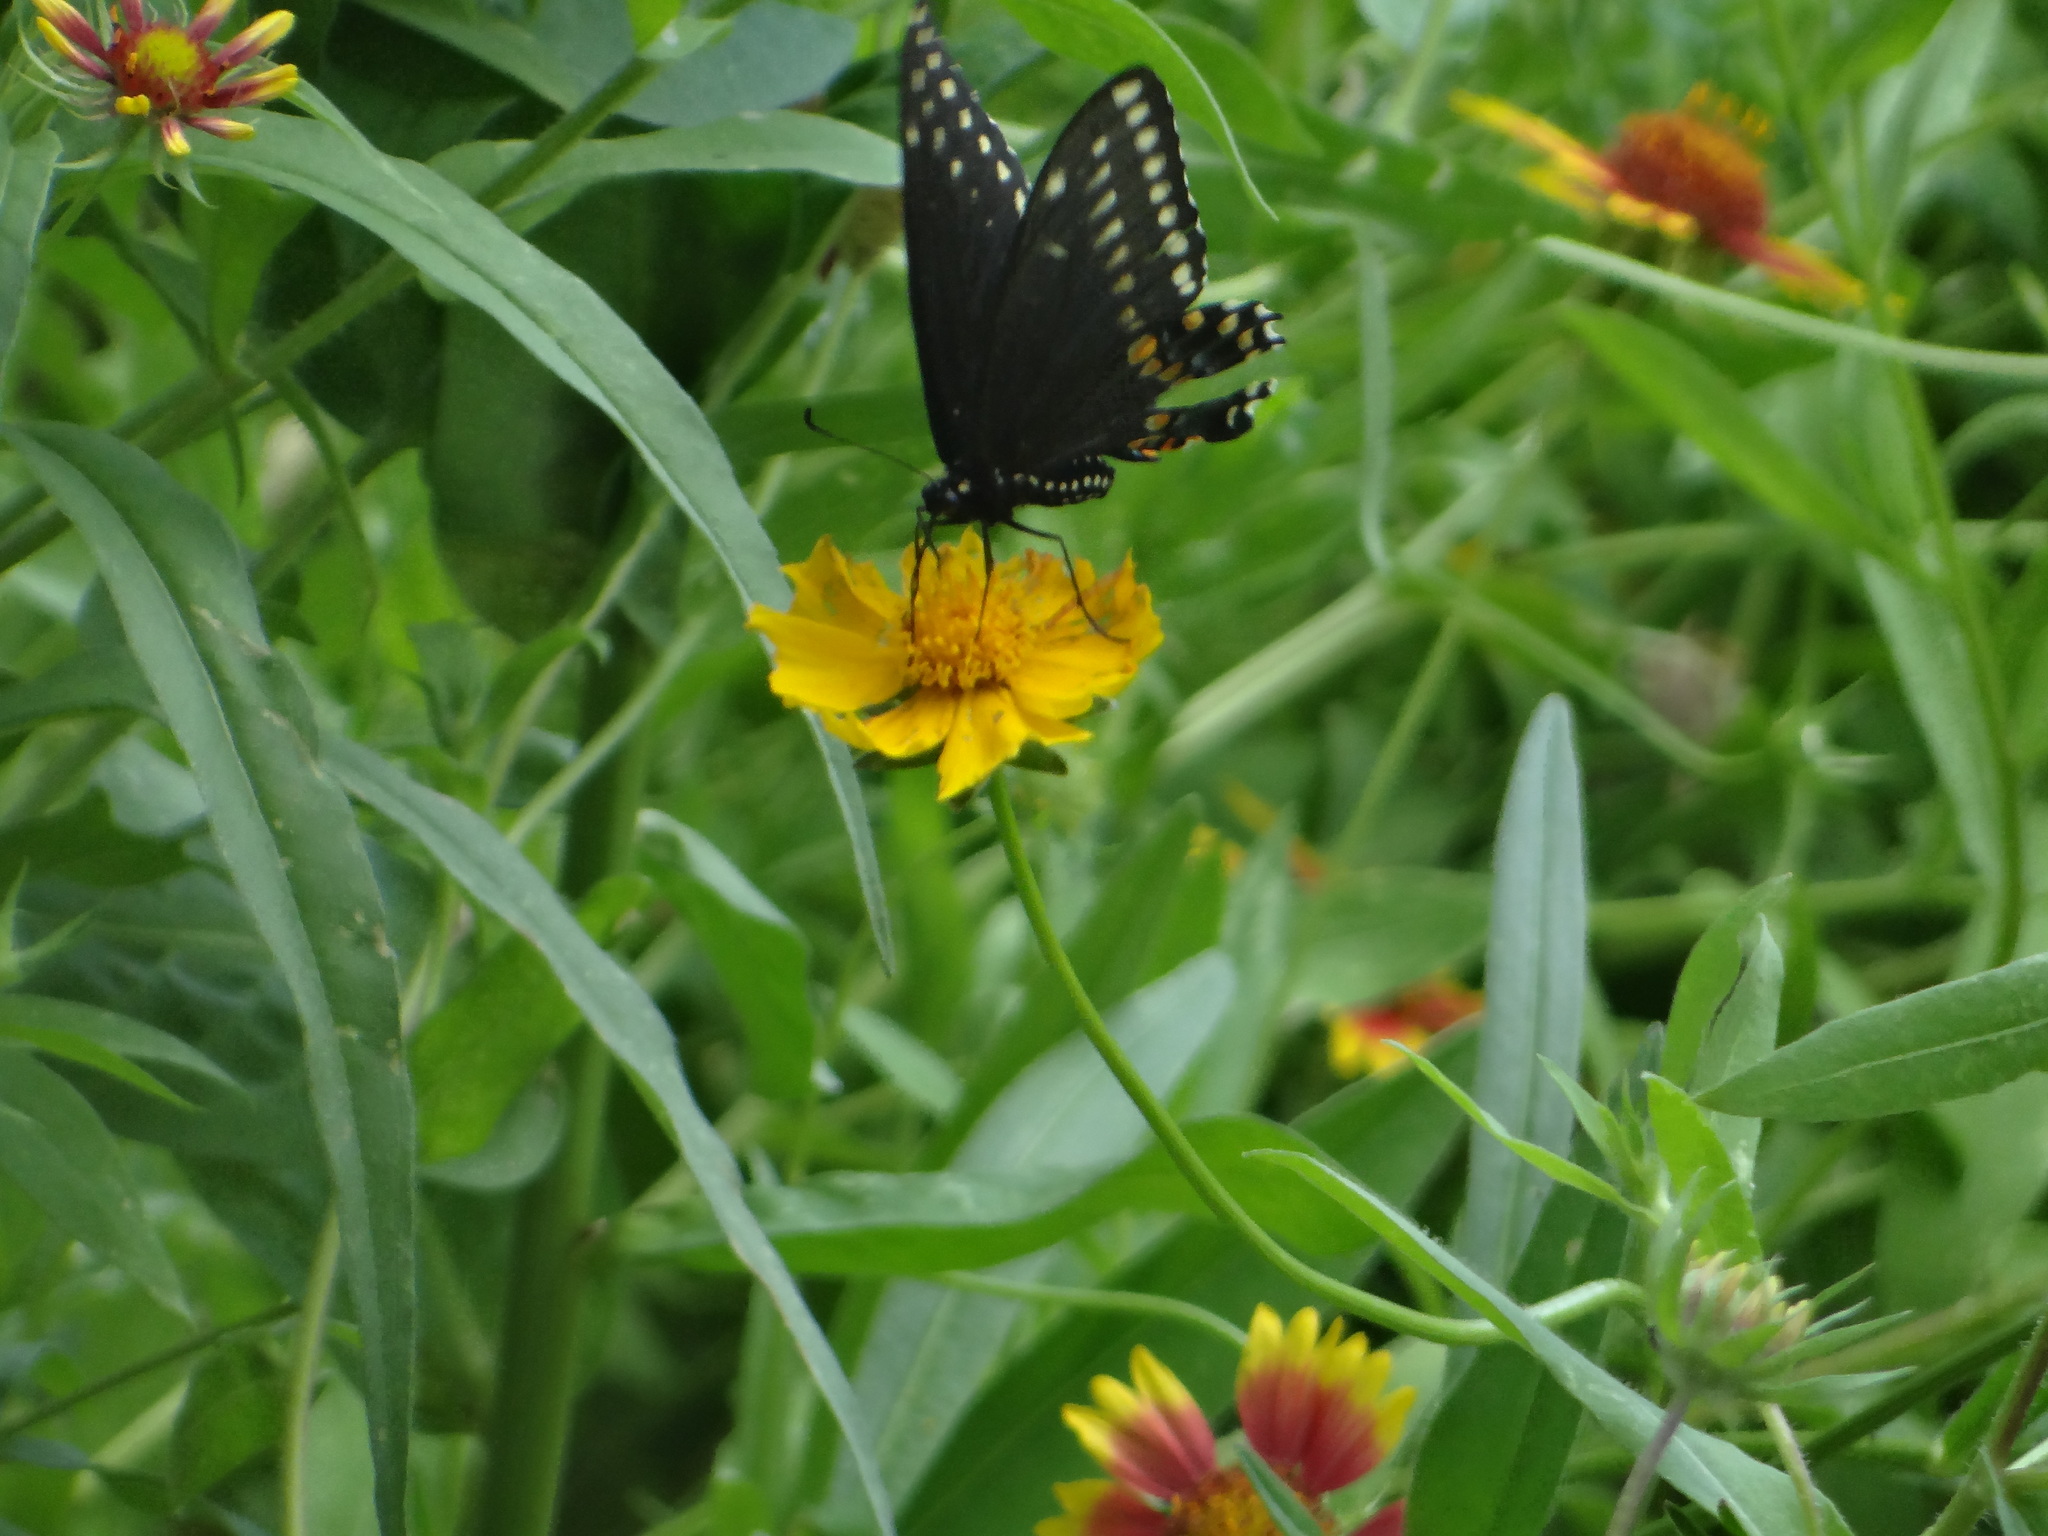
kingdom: Animalia
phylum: Arthropoda
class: Insecta
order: Lepidoptera
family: Papilionidae
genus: Papilio
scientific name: Papilio polyxenes
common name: Black swallowtail
